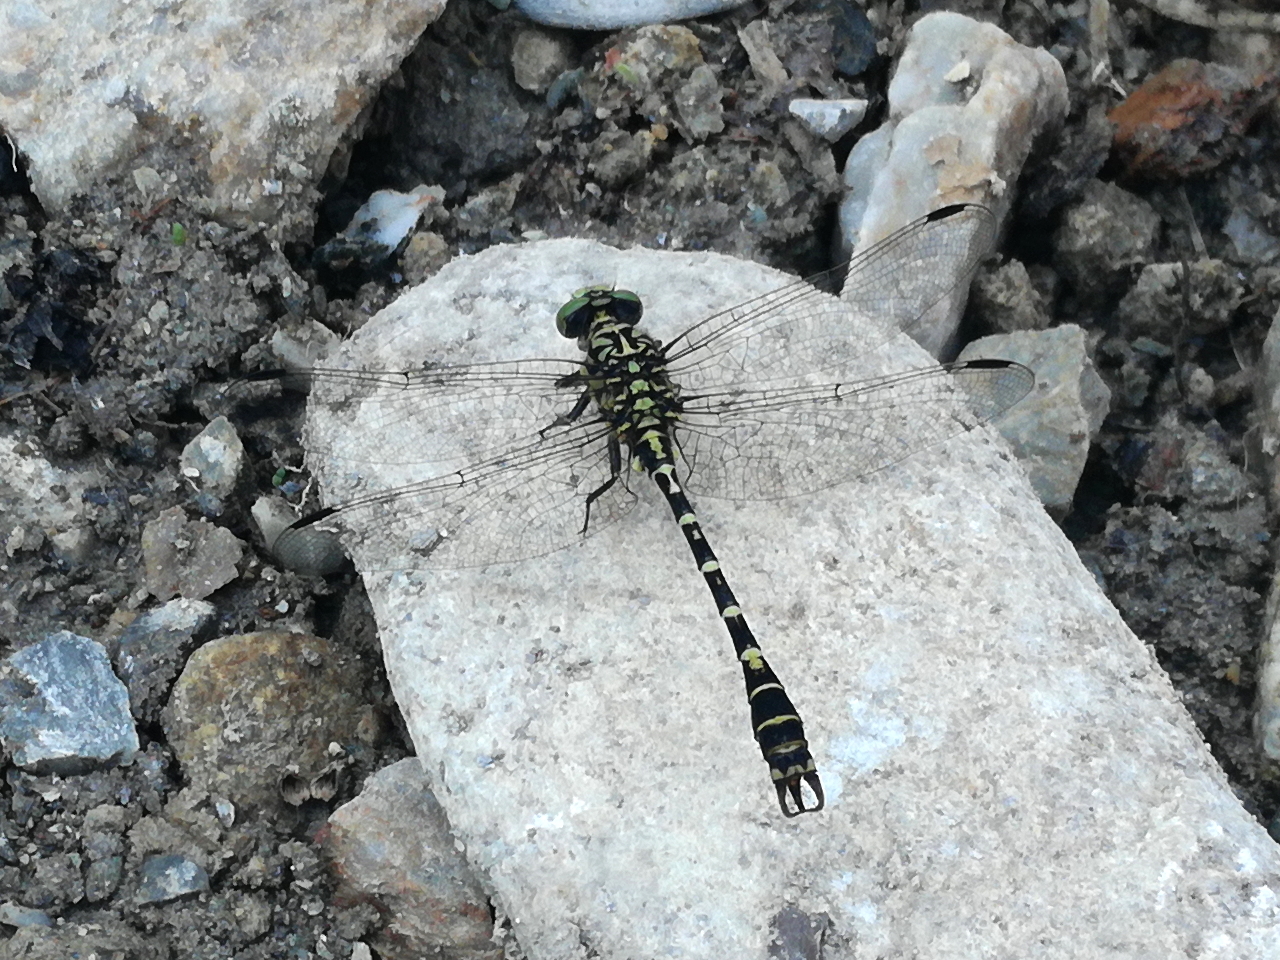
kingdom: Animalia
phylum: Arthropoda
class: Insecta
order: Odonata
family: Gomphidae
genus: Onychogomphus
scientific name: Onychogomphus forcipatus
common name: Small pincertail
